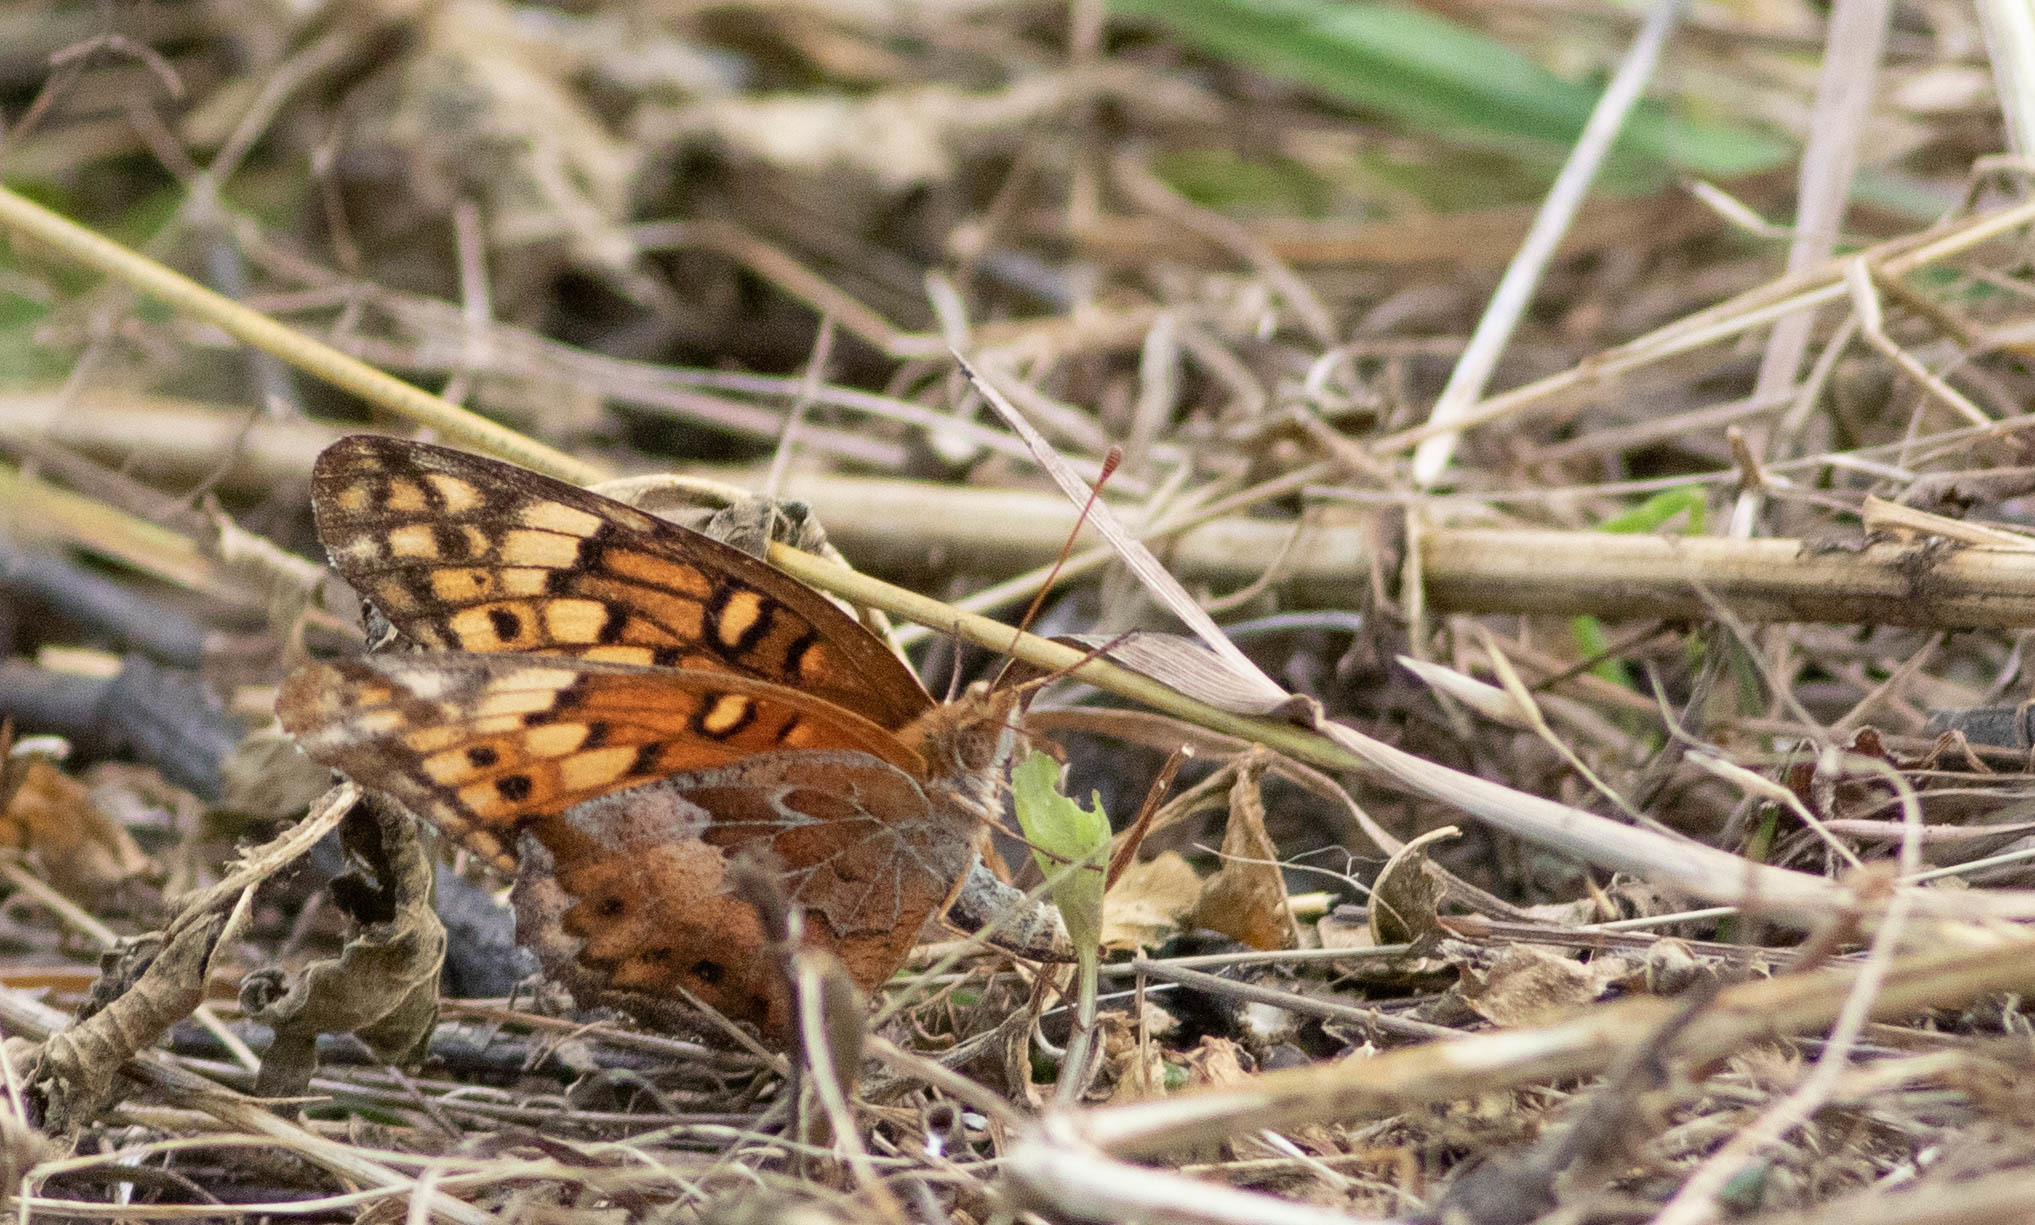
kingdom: Animalia
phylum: Arthropoda
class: Insecta
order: Lepidoptera
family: Nymphalidae
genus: Euptoieta
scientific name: Euptoieta claudia
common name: Variegated fritillary
